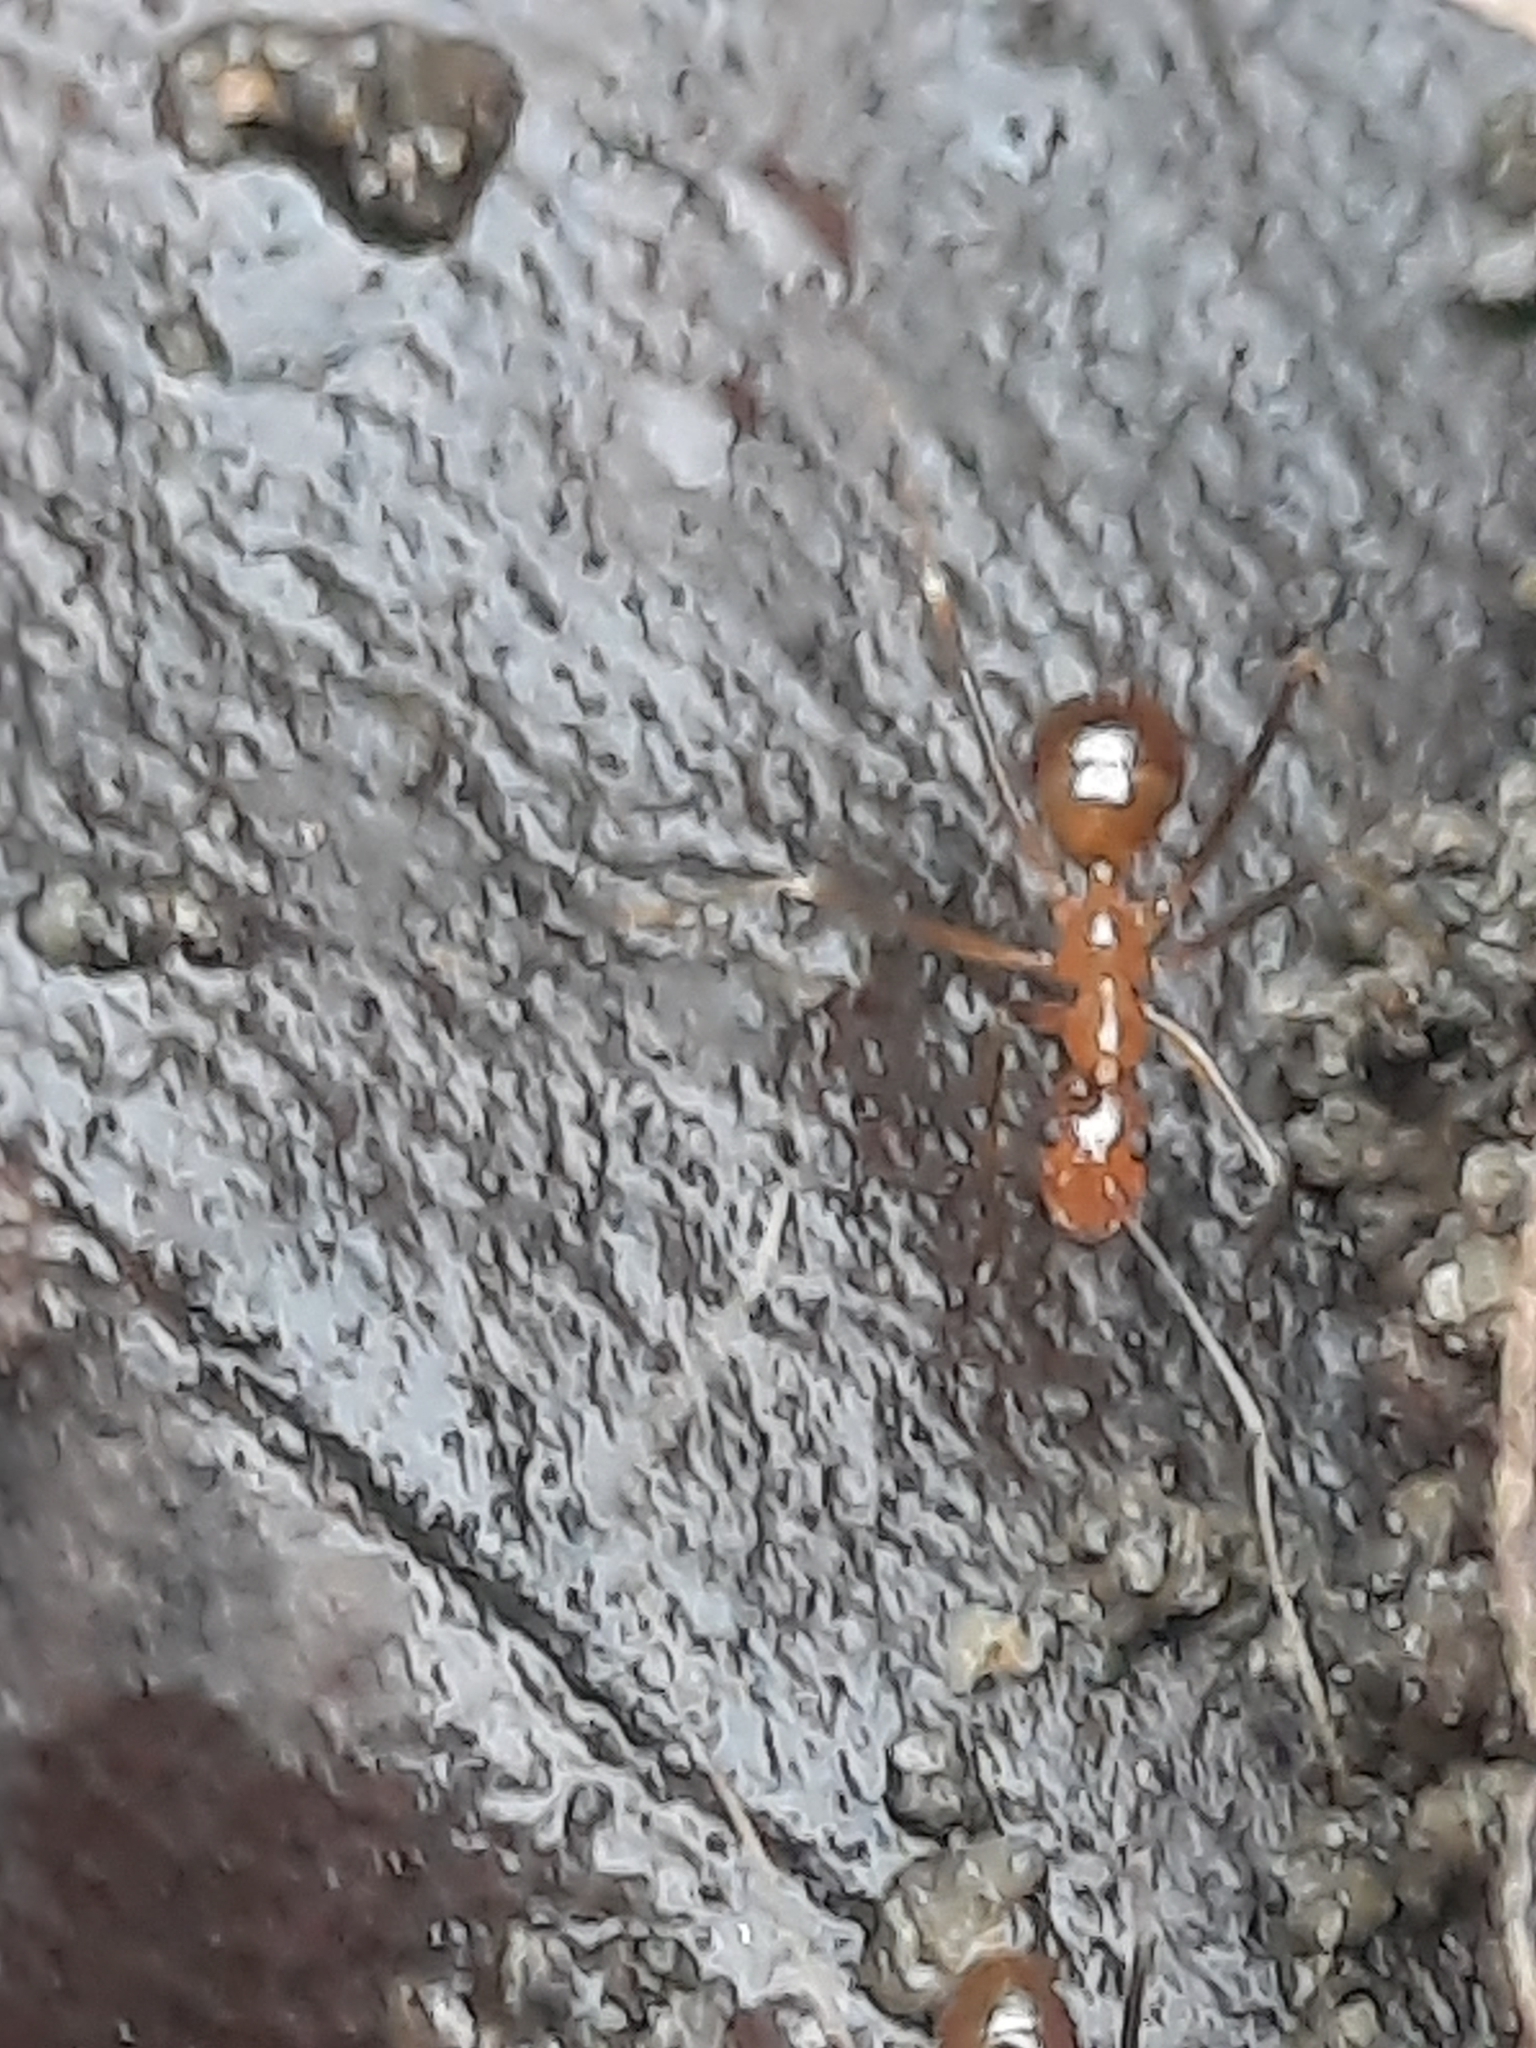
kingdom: Animalia
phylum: Arthropoda
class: Insecta
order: Hymenoptera
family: Formicidae
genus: Anoplolepis
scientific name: Anoplolepis gracilipes
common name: Ant
